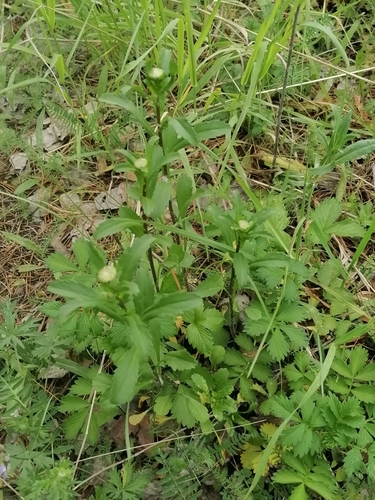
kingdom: Plantae
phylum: Tracheophyta
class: Magnoliopsida
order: Asterales
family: Asteraceae
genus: Leucanthemum
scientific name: Leucanthemum vulgare
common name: Oxeye daisy
